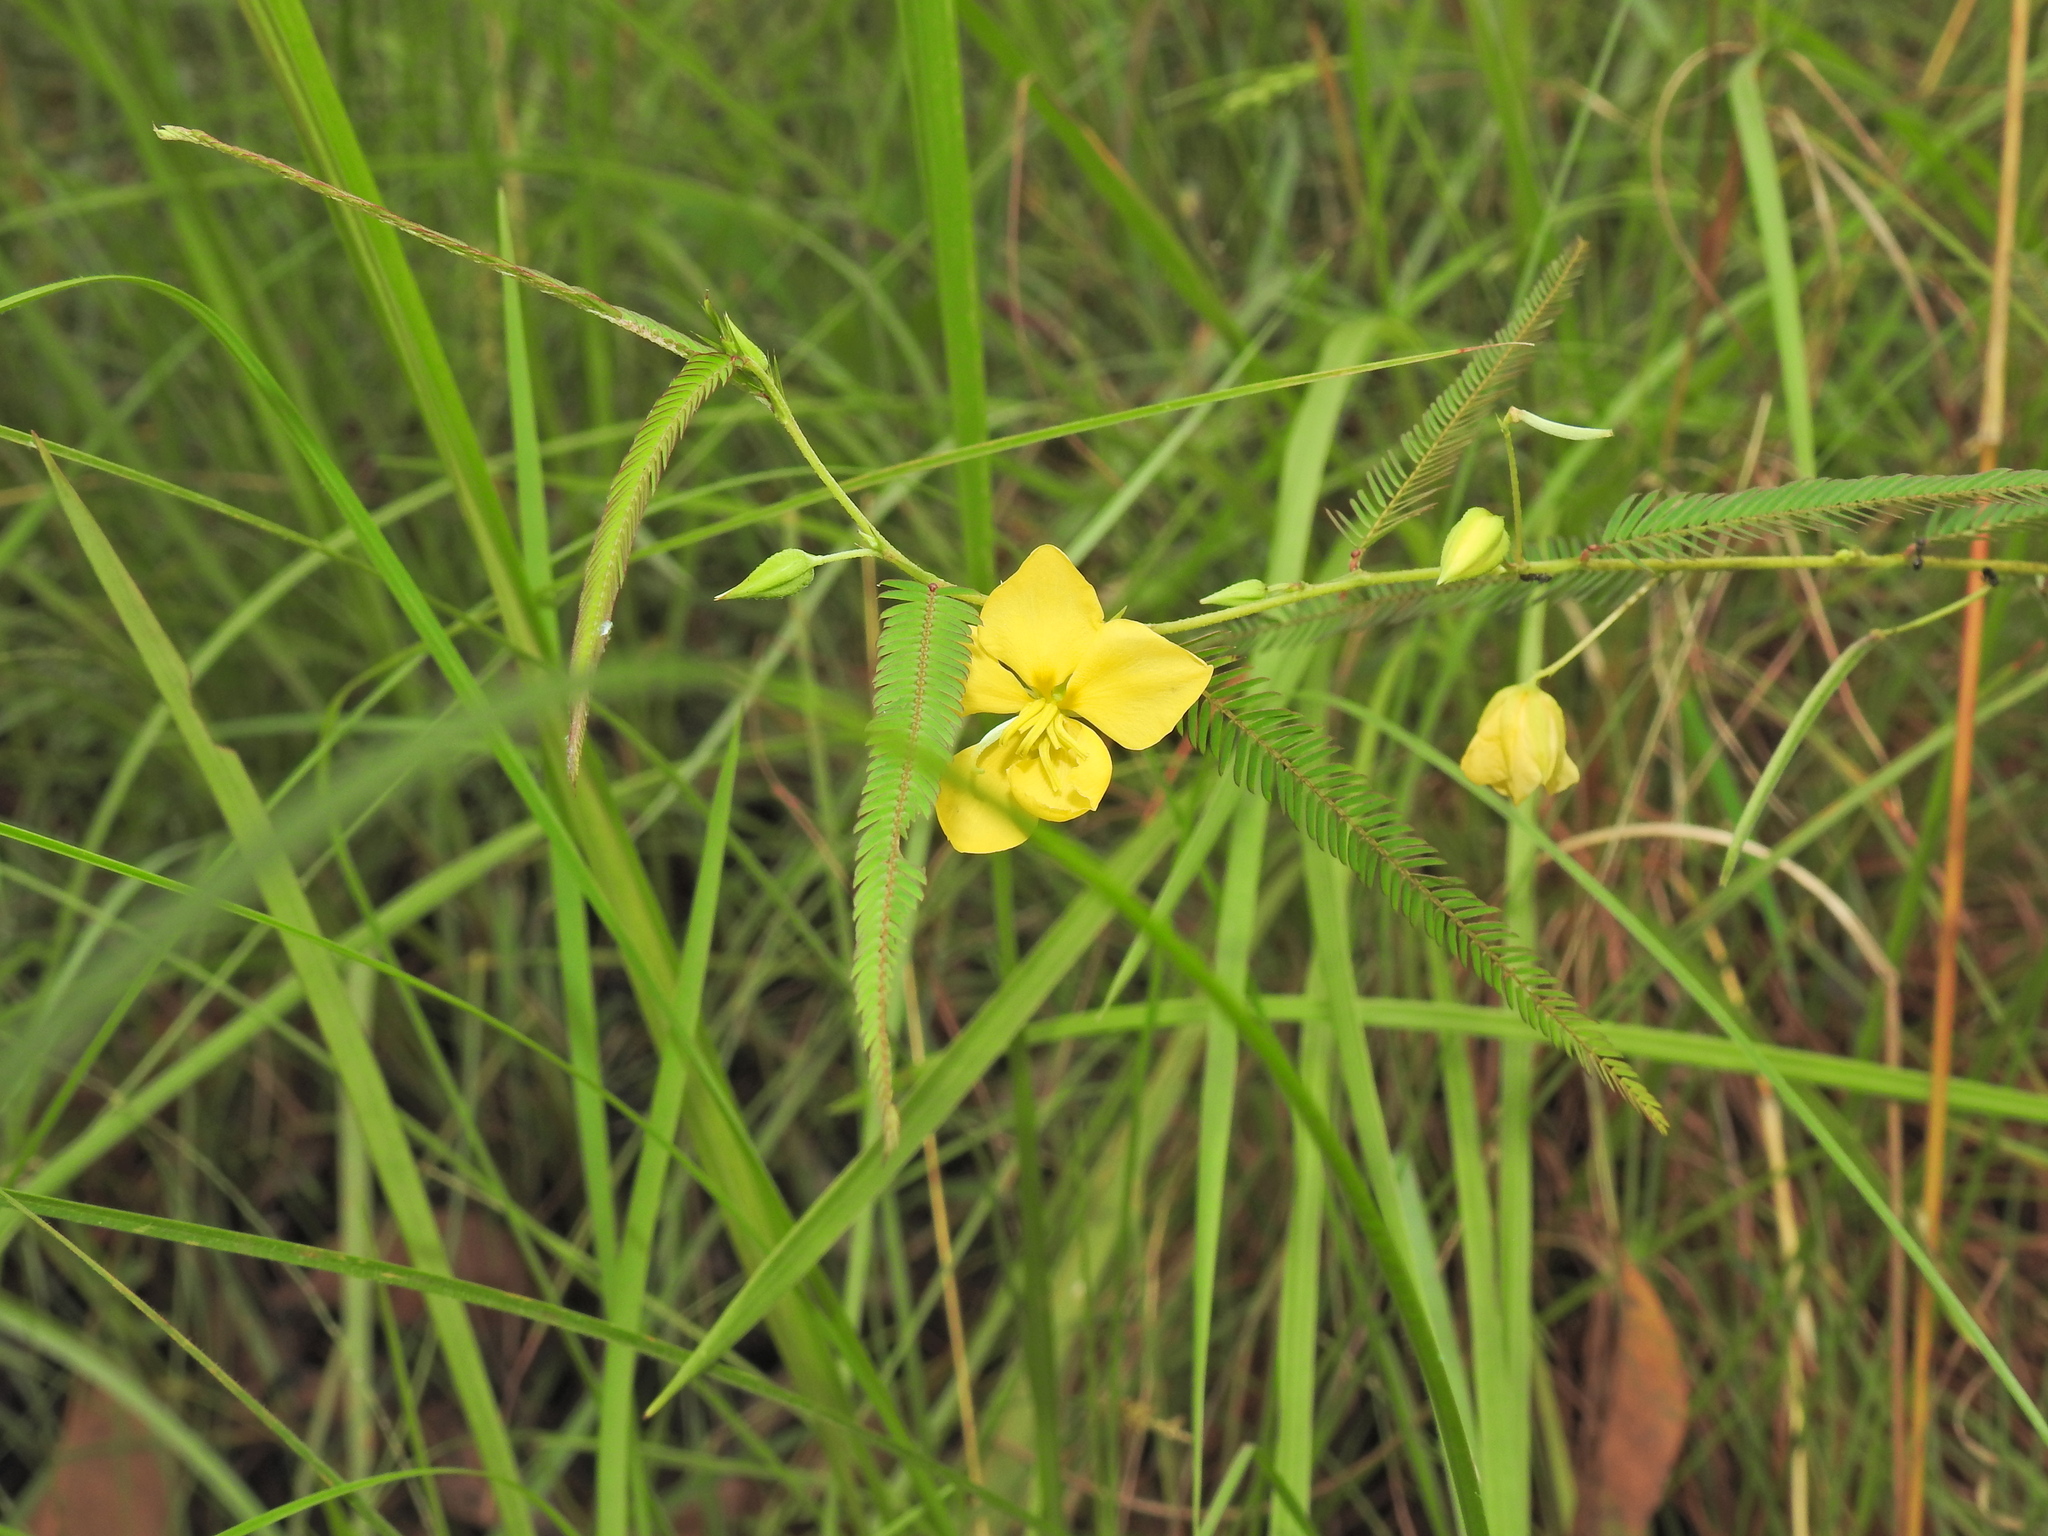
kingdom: Plantae
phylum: Tracheophyta
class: Magnoliopsida
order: Fabales
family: Fabaceae
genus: Chamaecrista
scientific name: Chamaecrista nomame
